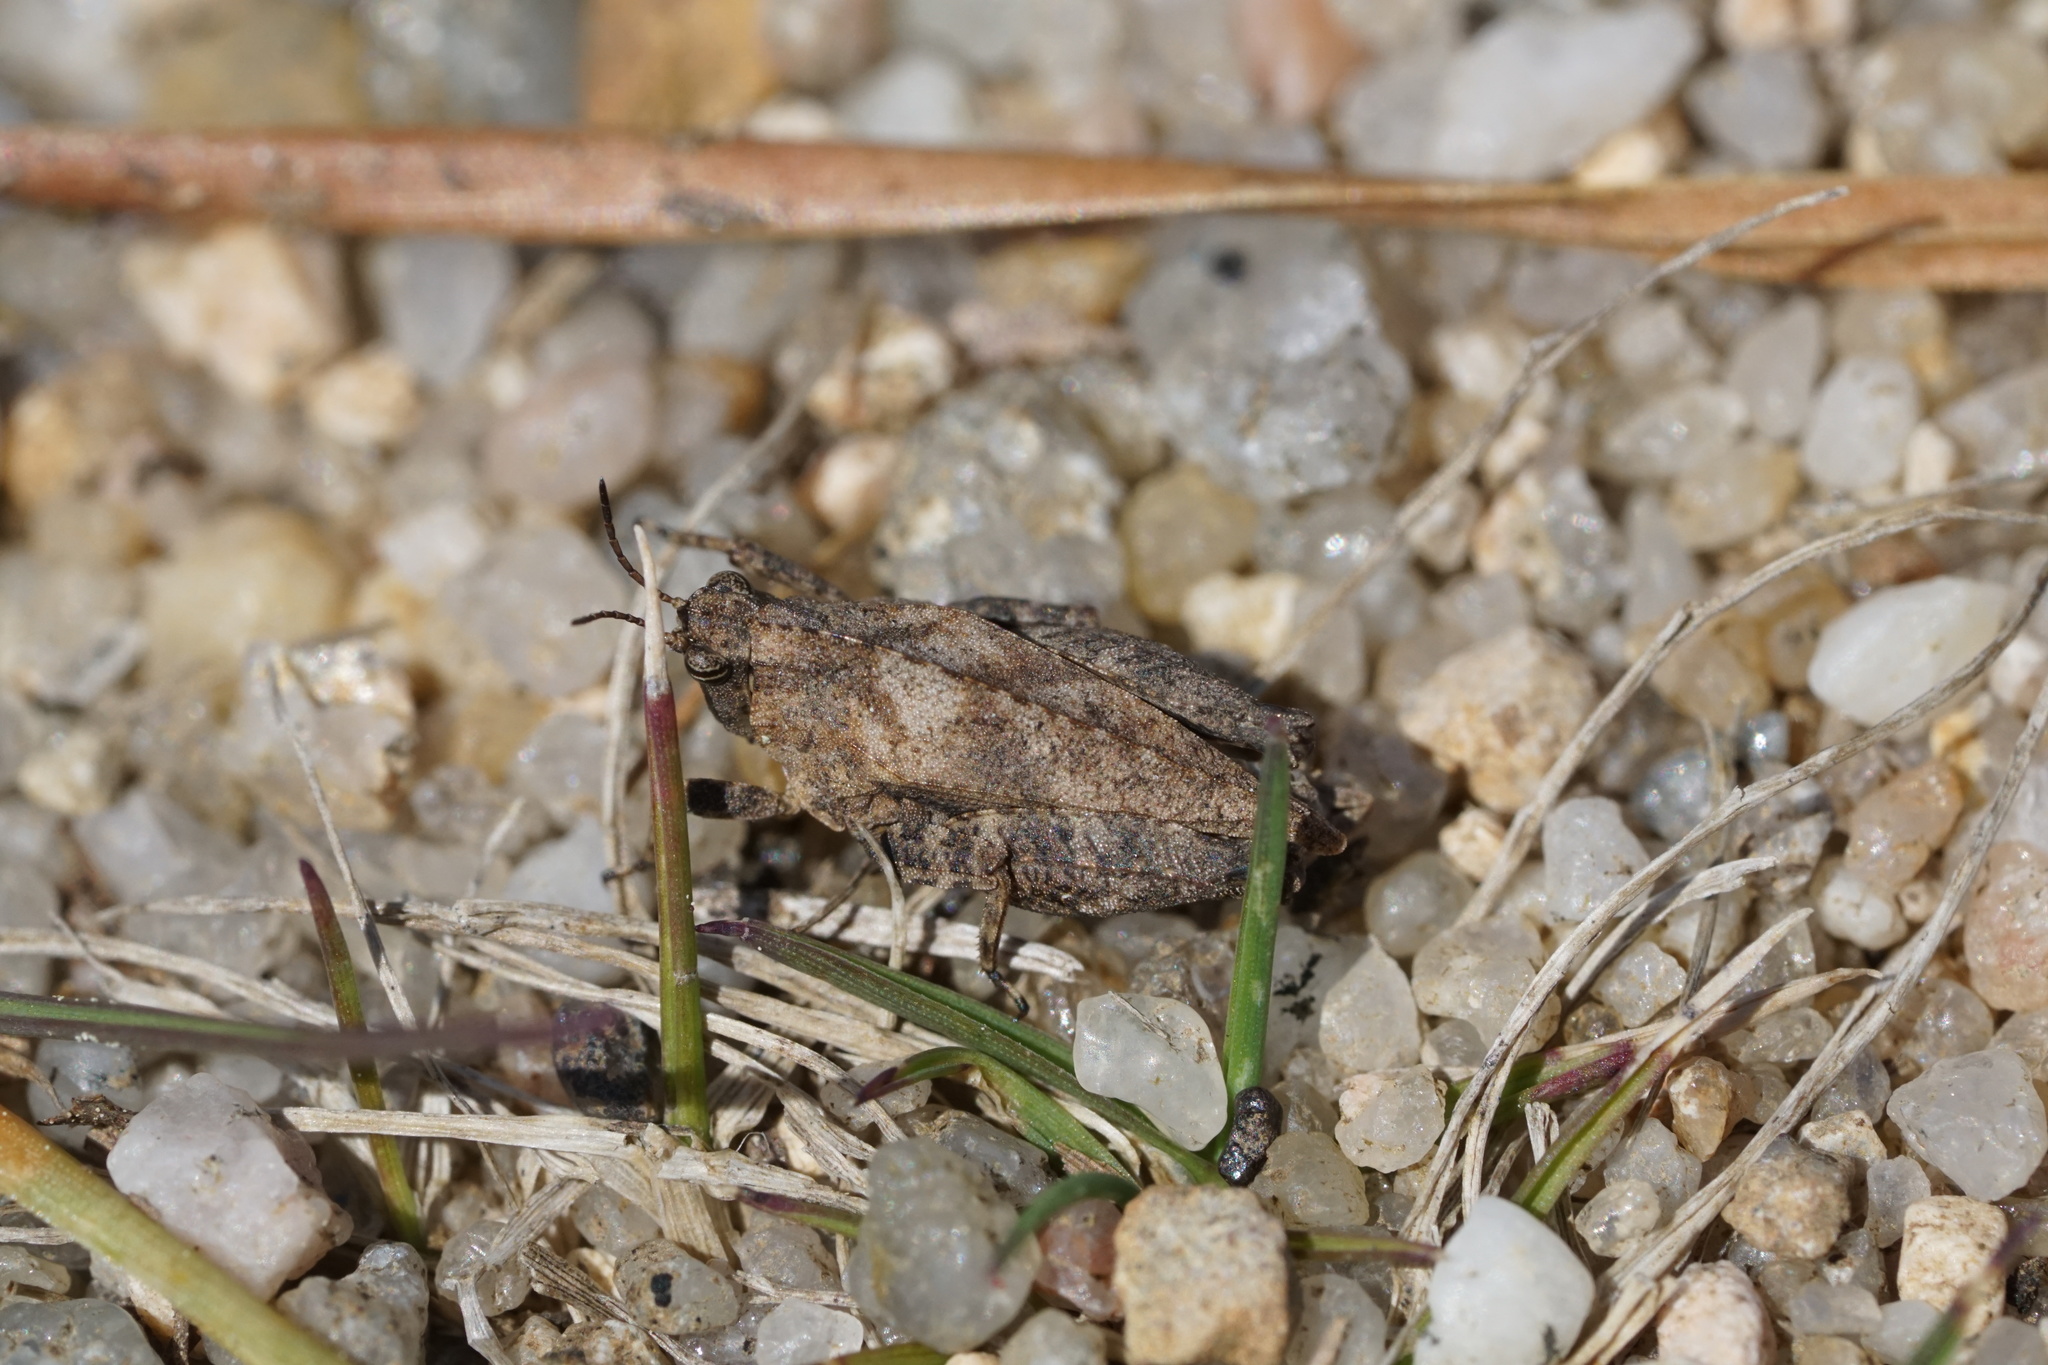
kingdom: Animalia
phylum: Arthropoda
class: Insecta
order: Orthoptera
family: Tetrigidae
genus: Nomotettix
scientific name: Nomotettix cristatus
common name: Crested grouse locust
